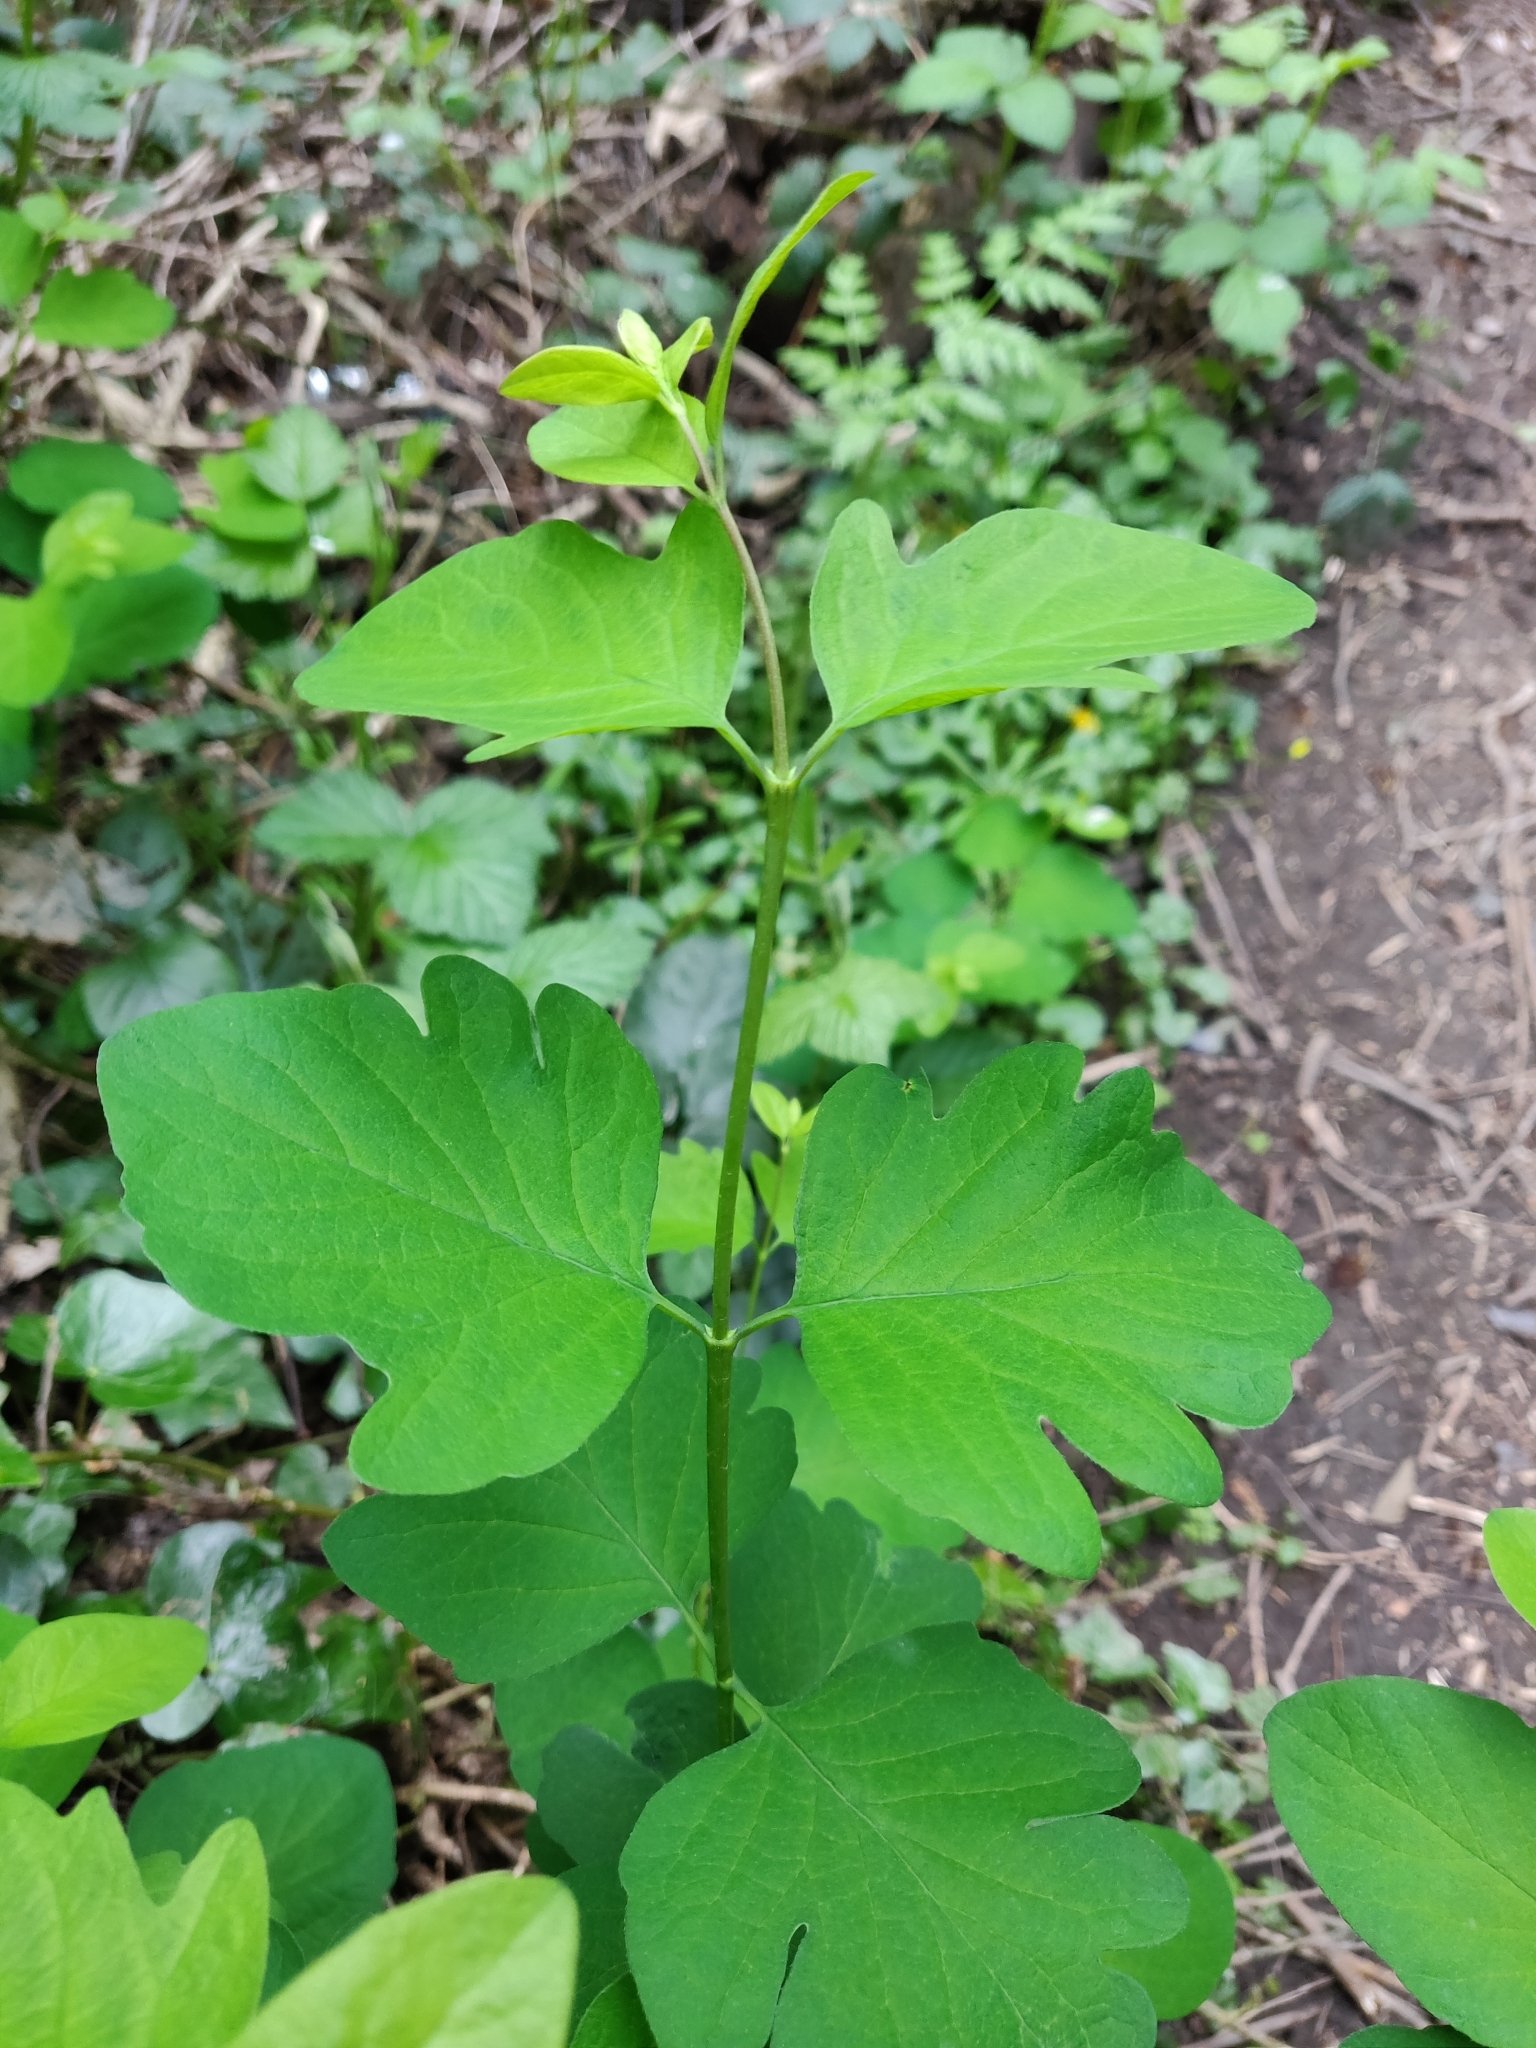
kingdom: Plantae
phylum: Tracheophyta
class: Magnoliopsida
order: Dipsacales
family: Caprifoliaceae
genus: Symphoricarpos
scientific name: Symphoricarpos albus
